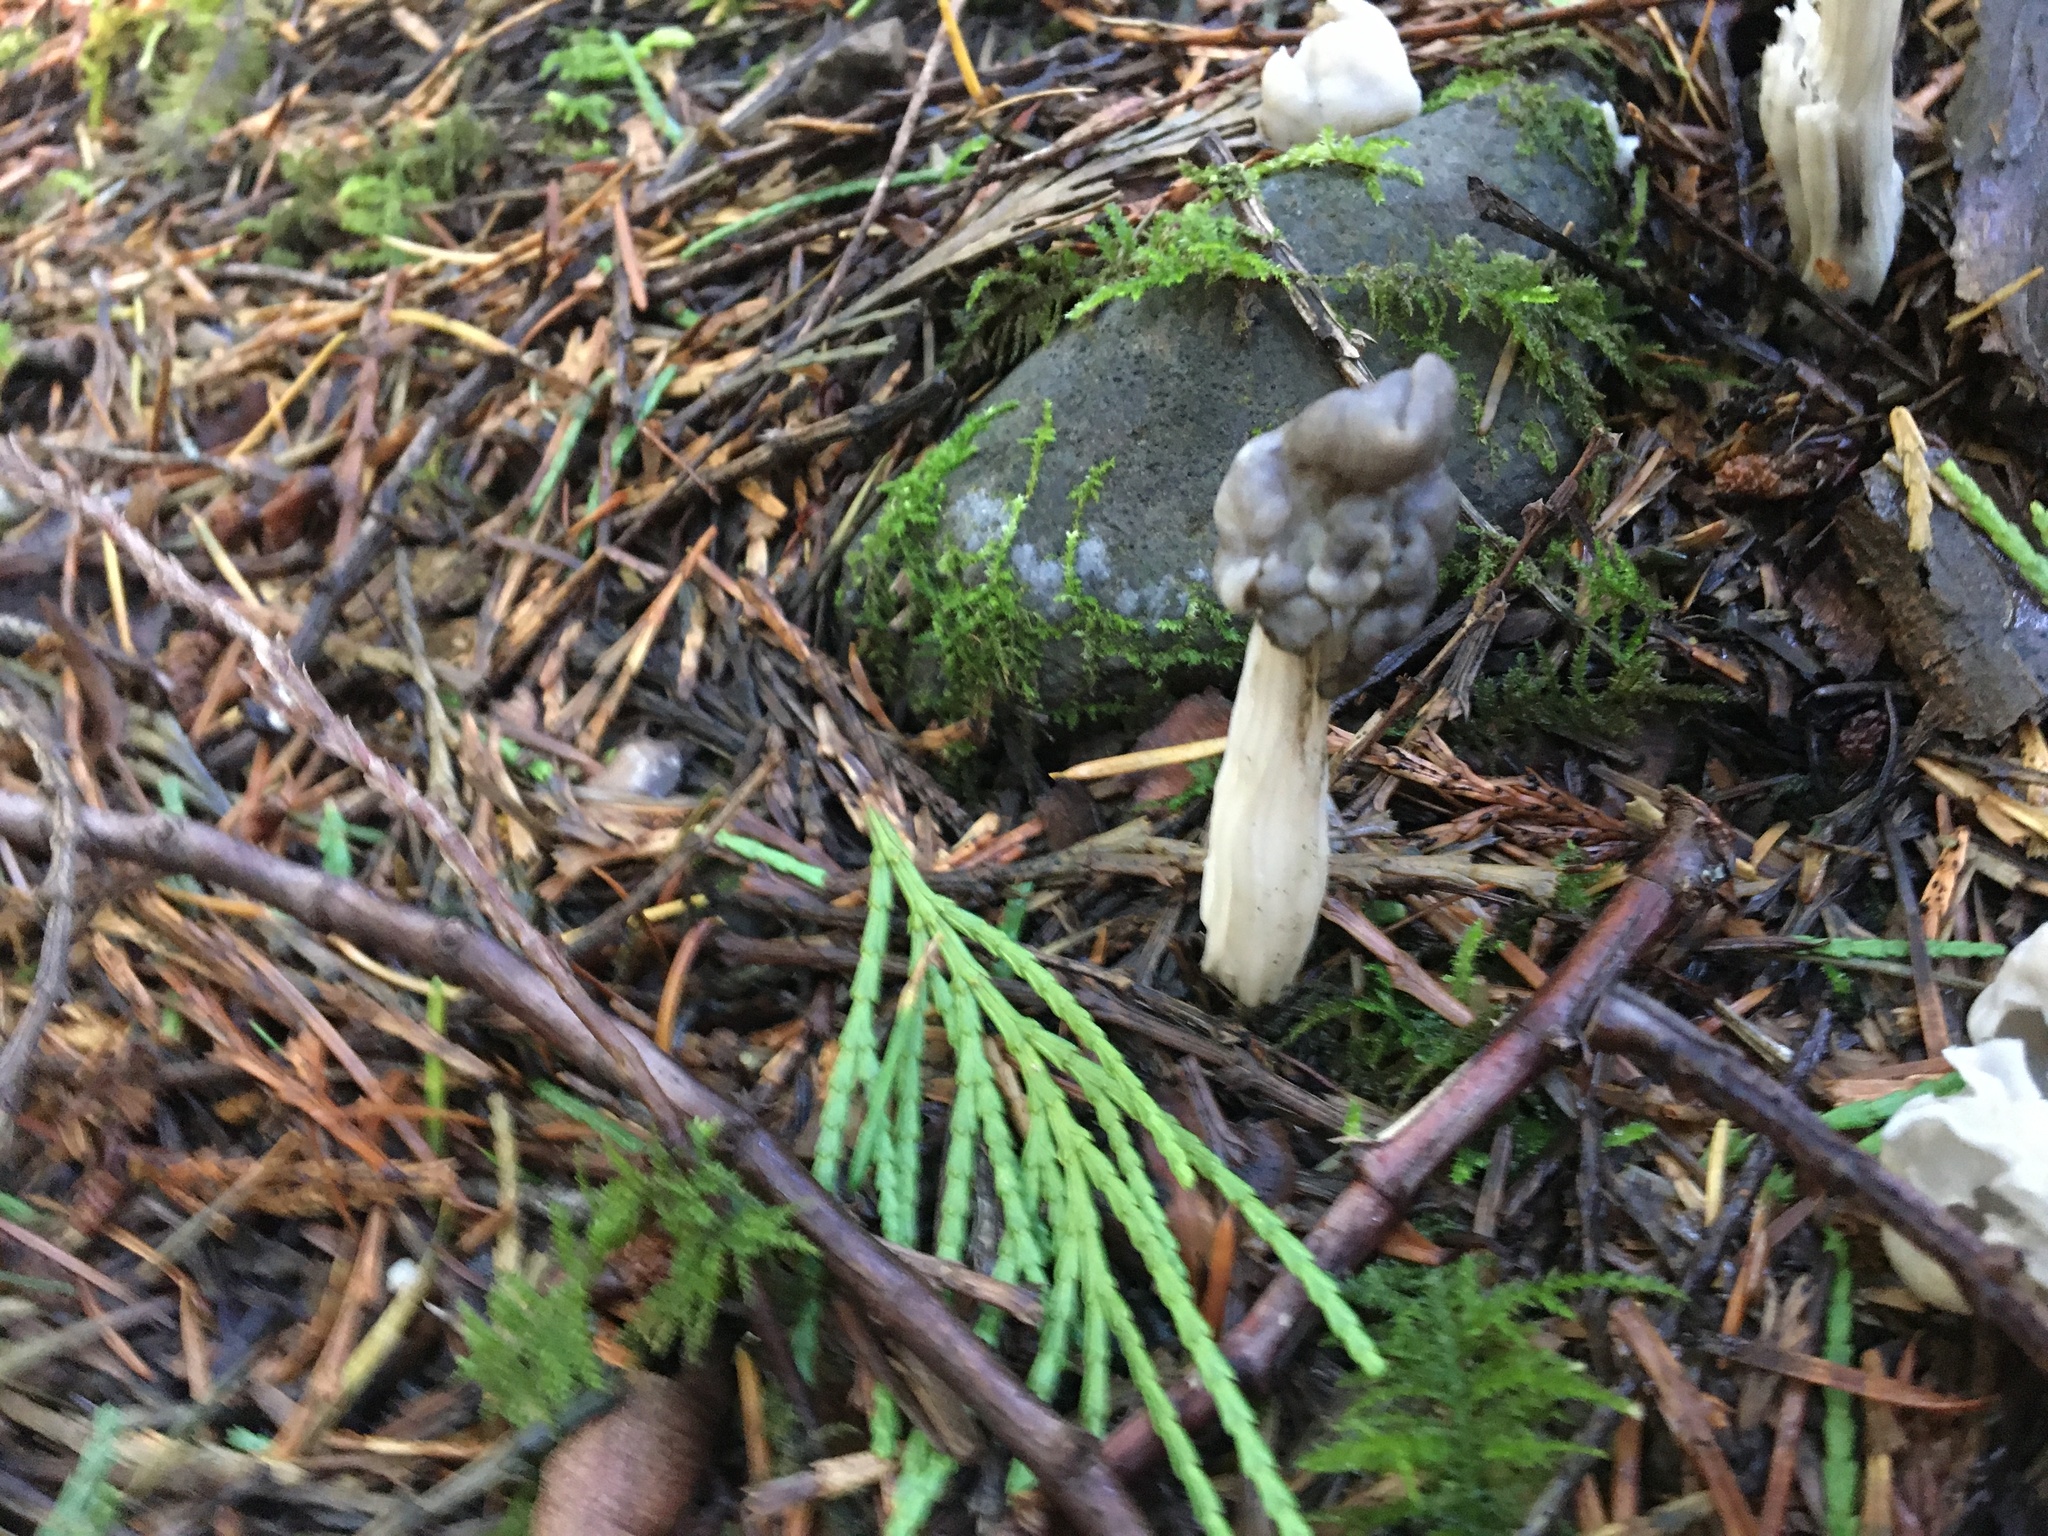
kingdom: Fungi
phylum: Ascomycota
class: Pezizomycetes
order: Pezizales
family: Helvellaceae
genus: Helvella
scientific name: Helvella vespertina
